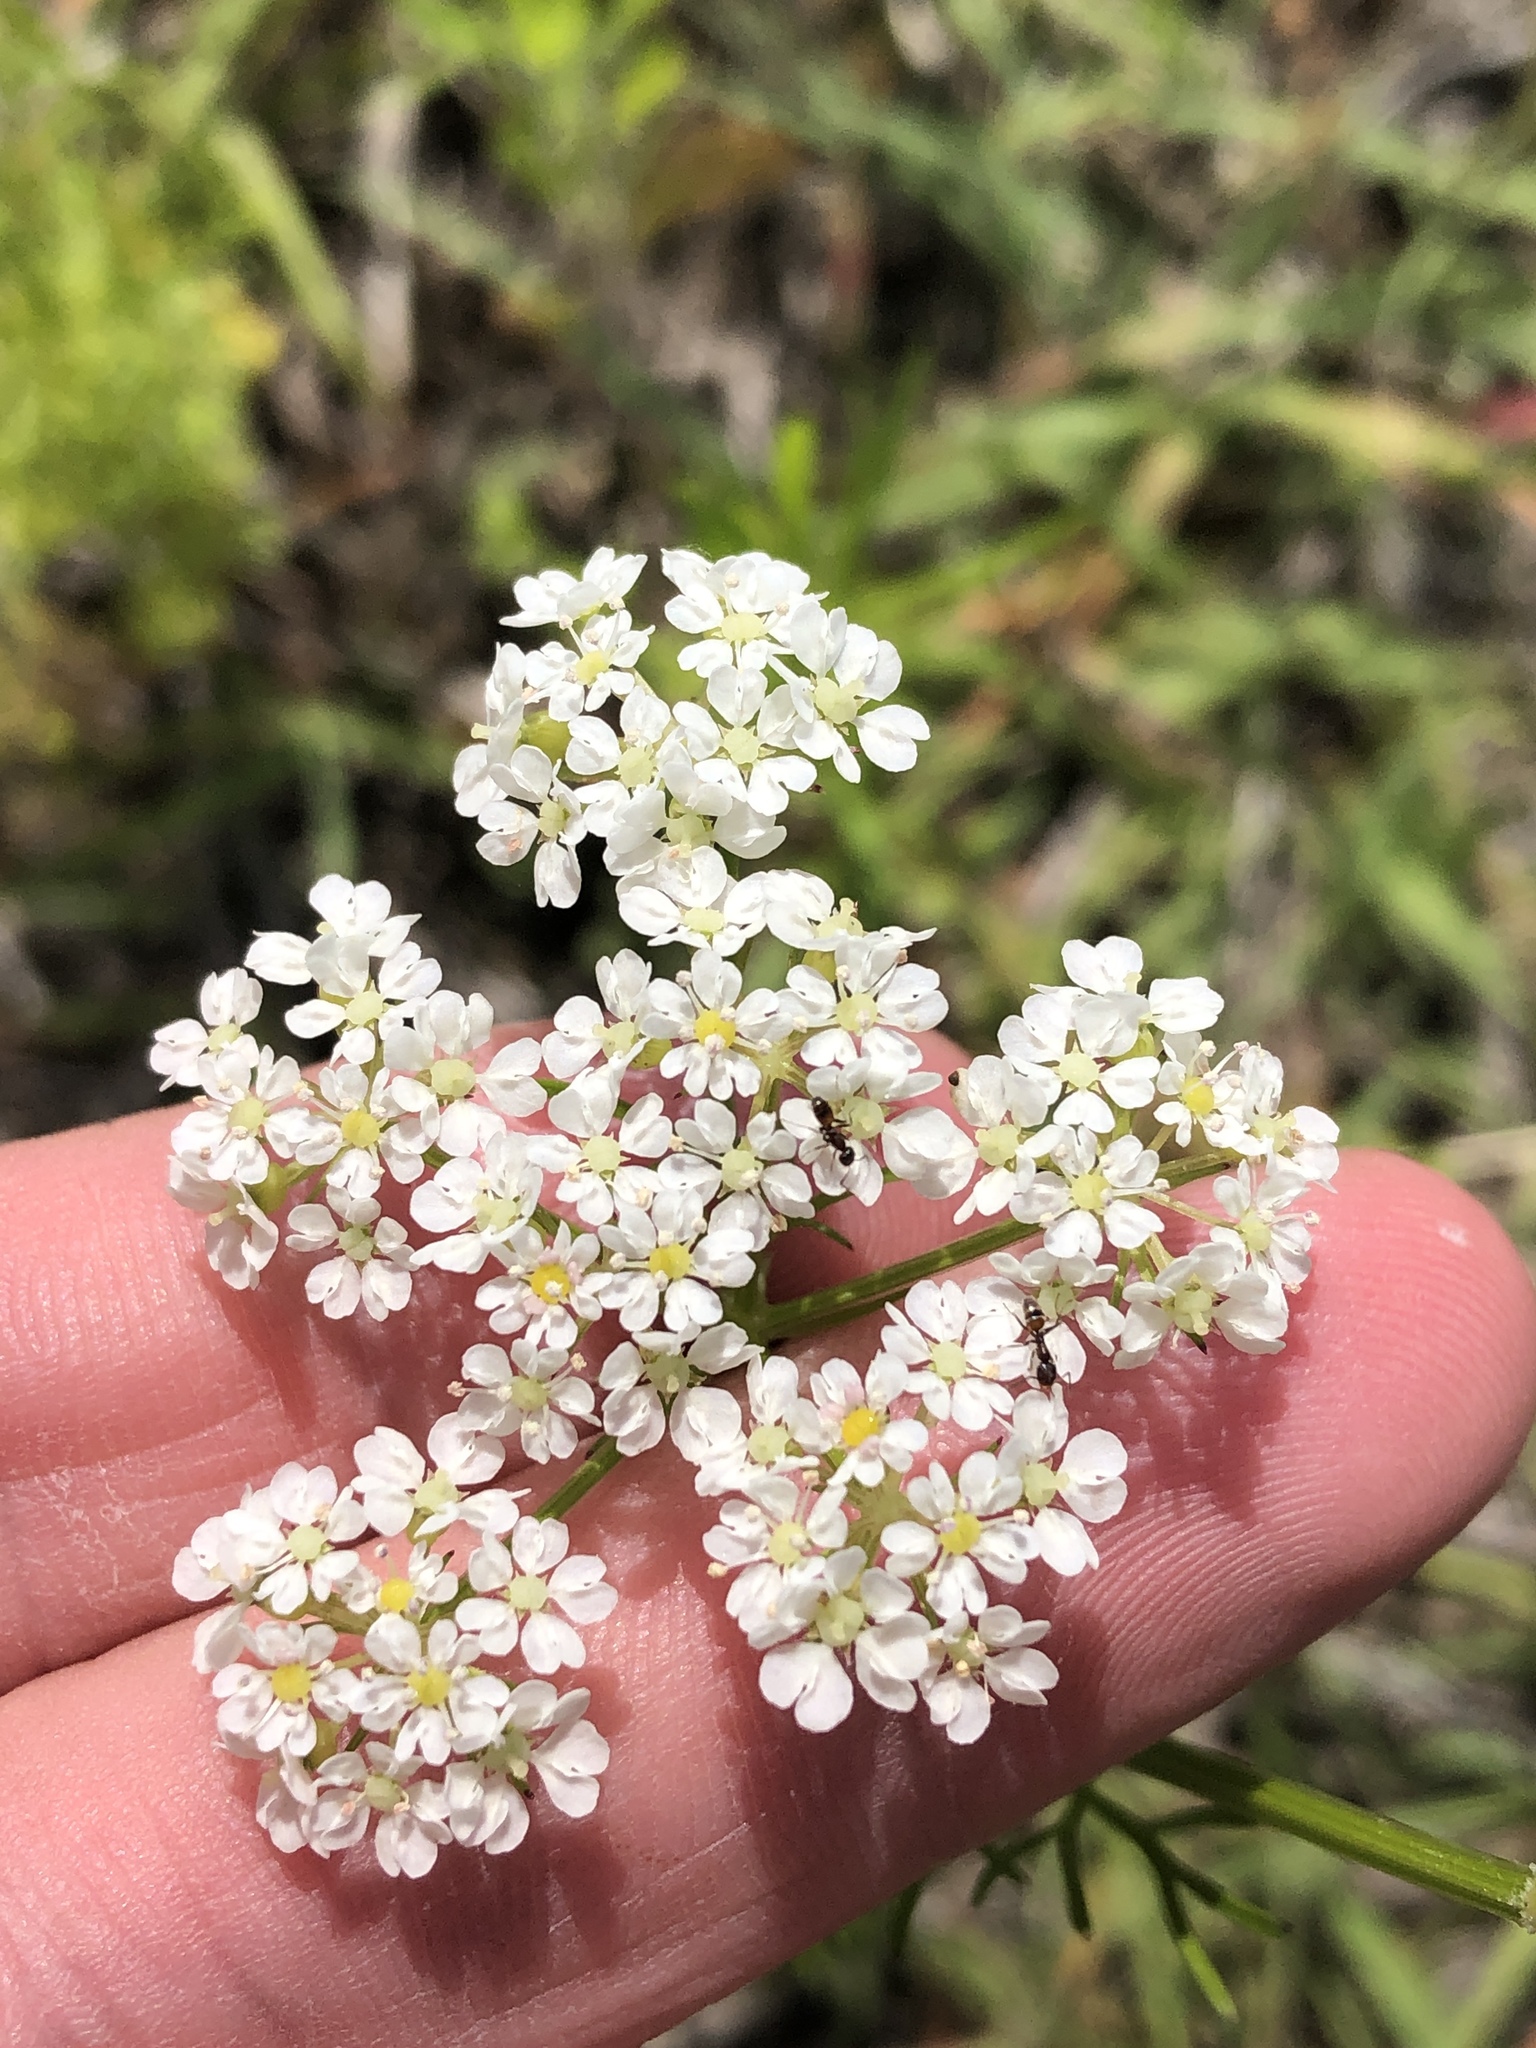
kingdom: Plantae
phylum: Tracheophyta
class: Magnoliopsida
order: Apiales
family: Apiaceae
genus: Atrema
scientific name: Atrema americanum
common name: Prairie-bishop
